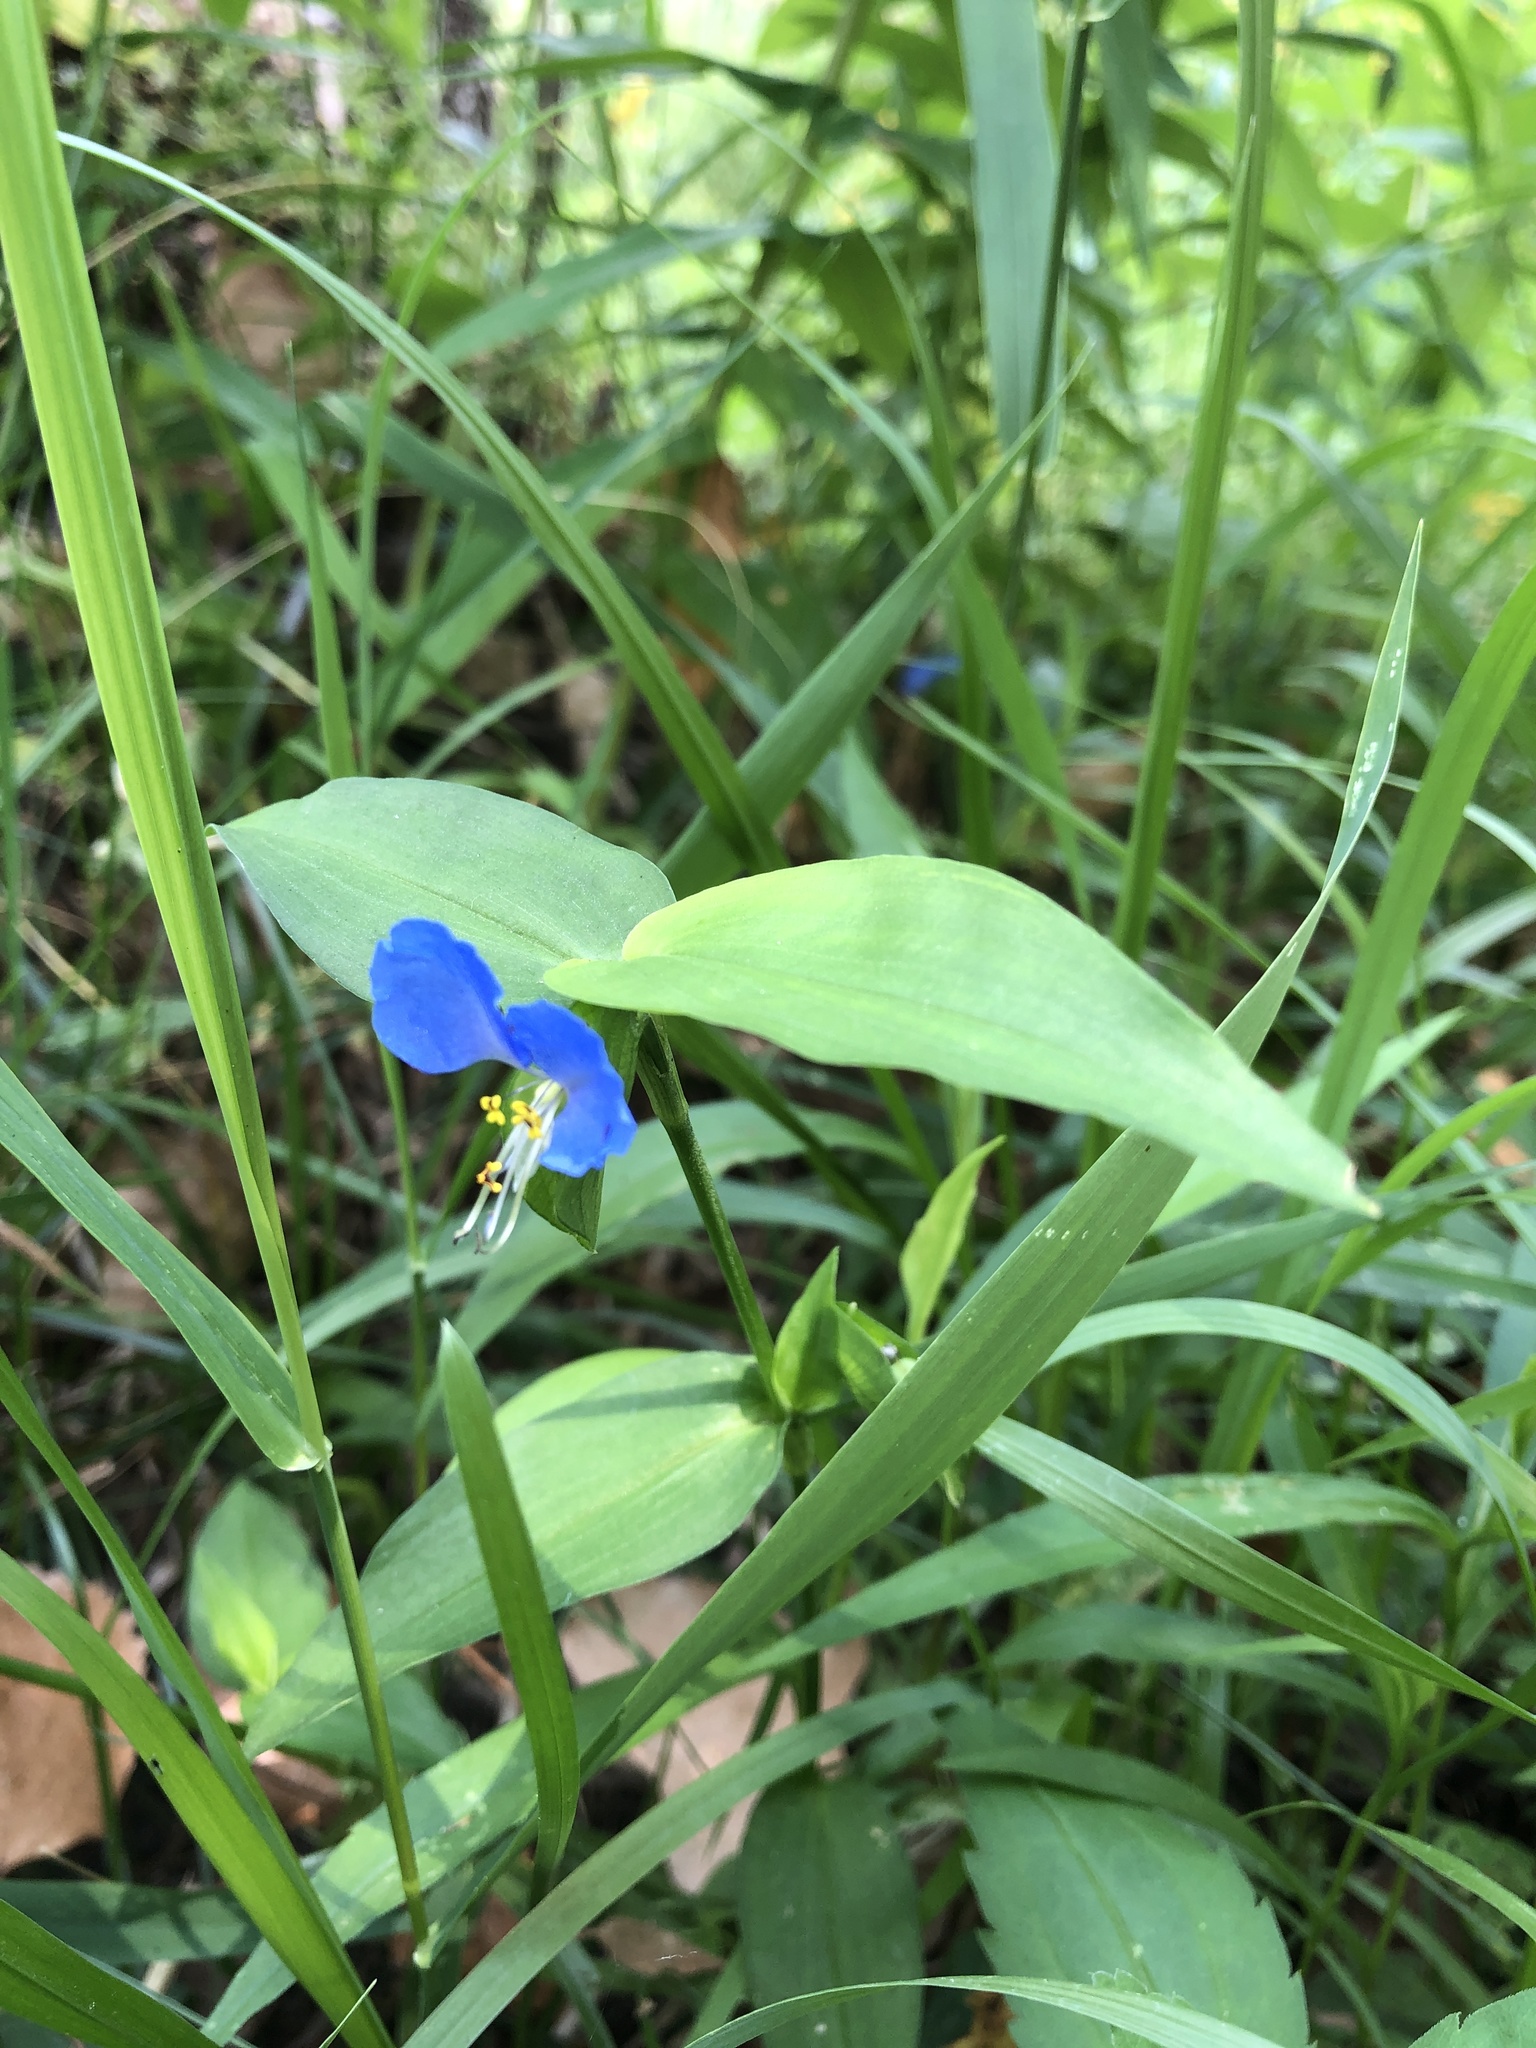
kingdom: Plantae
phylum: Tracheophyta
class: Liliopsida
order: Commelinales
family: Commelinaceae
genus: Commelina
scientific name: Commelina communis
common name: Asiatic dayflower
